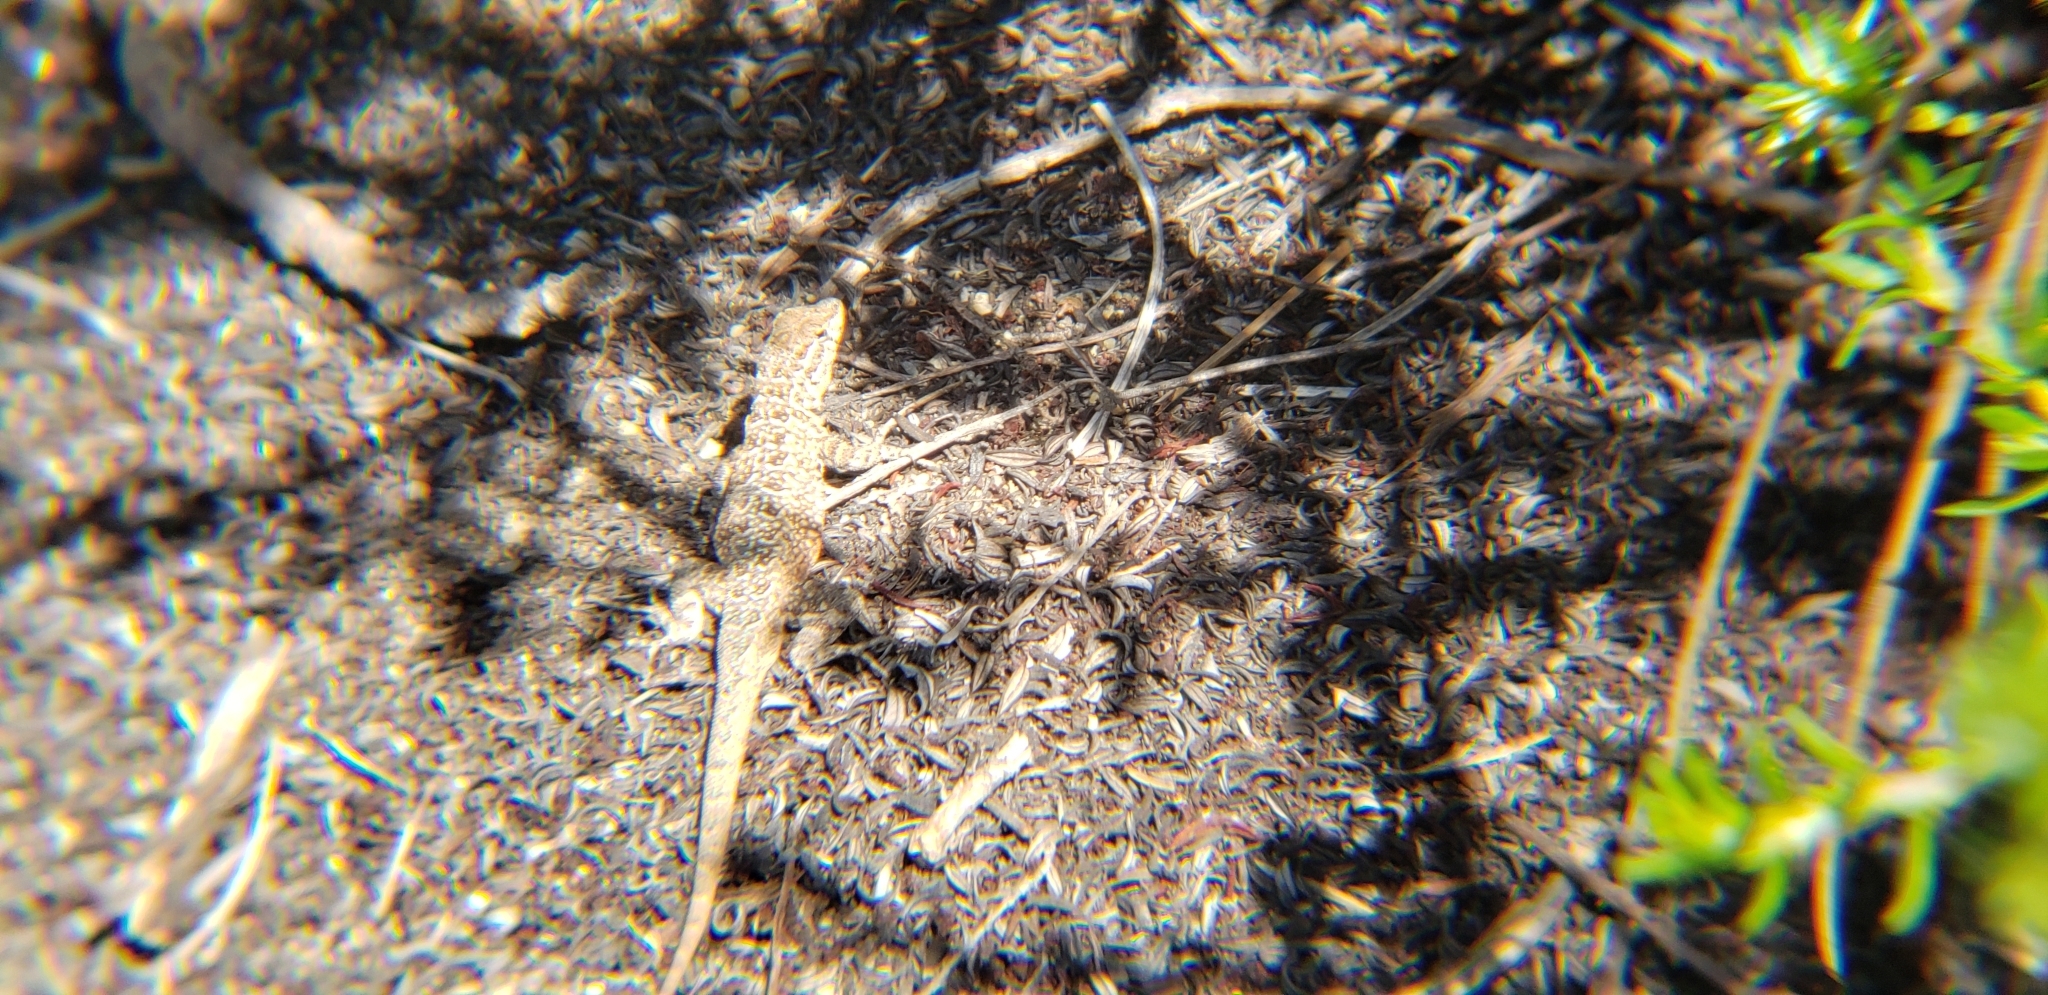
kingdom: Animalia
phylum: Chordata
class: Squamata
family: Phrynosomatidae
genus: Uta
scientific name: Uta stansburiana
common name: Side-blotched lizard
